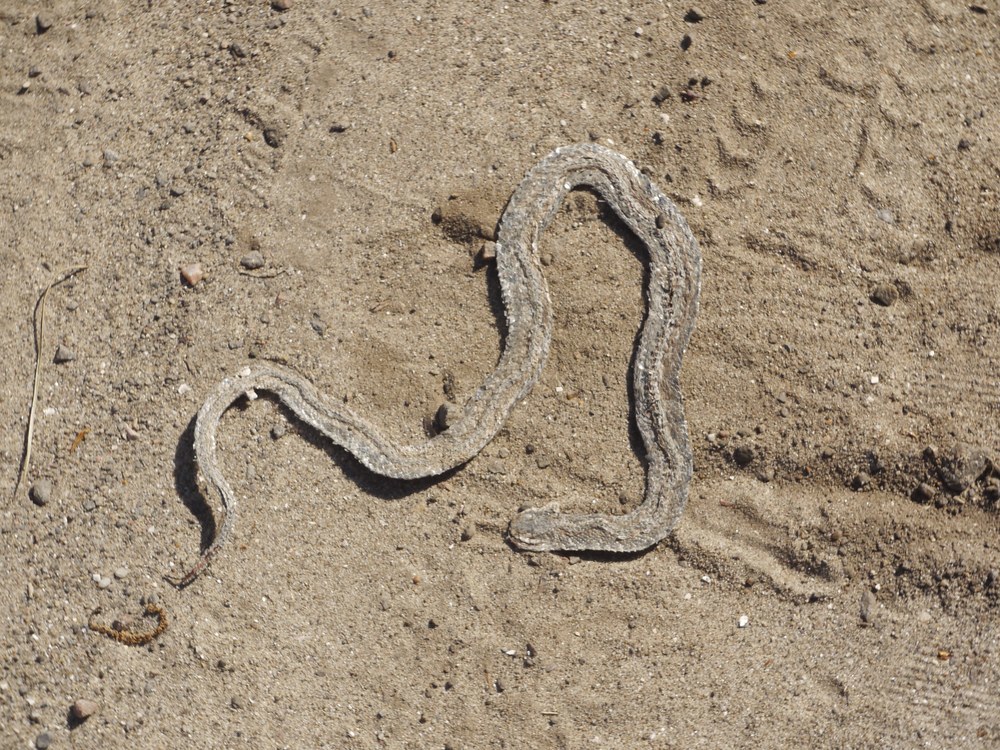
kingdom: Animalia
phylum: Chordata
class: Squamata
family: Colubridae
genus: Natrix
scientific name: Natrix tessellata
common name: Dice snake
